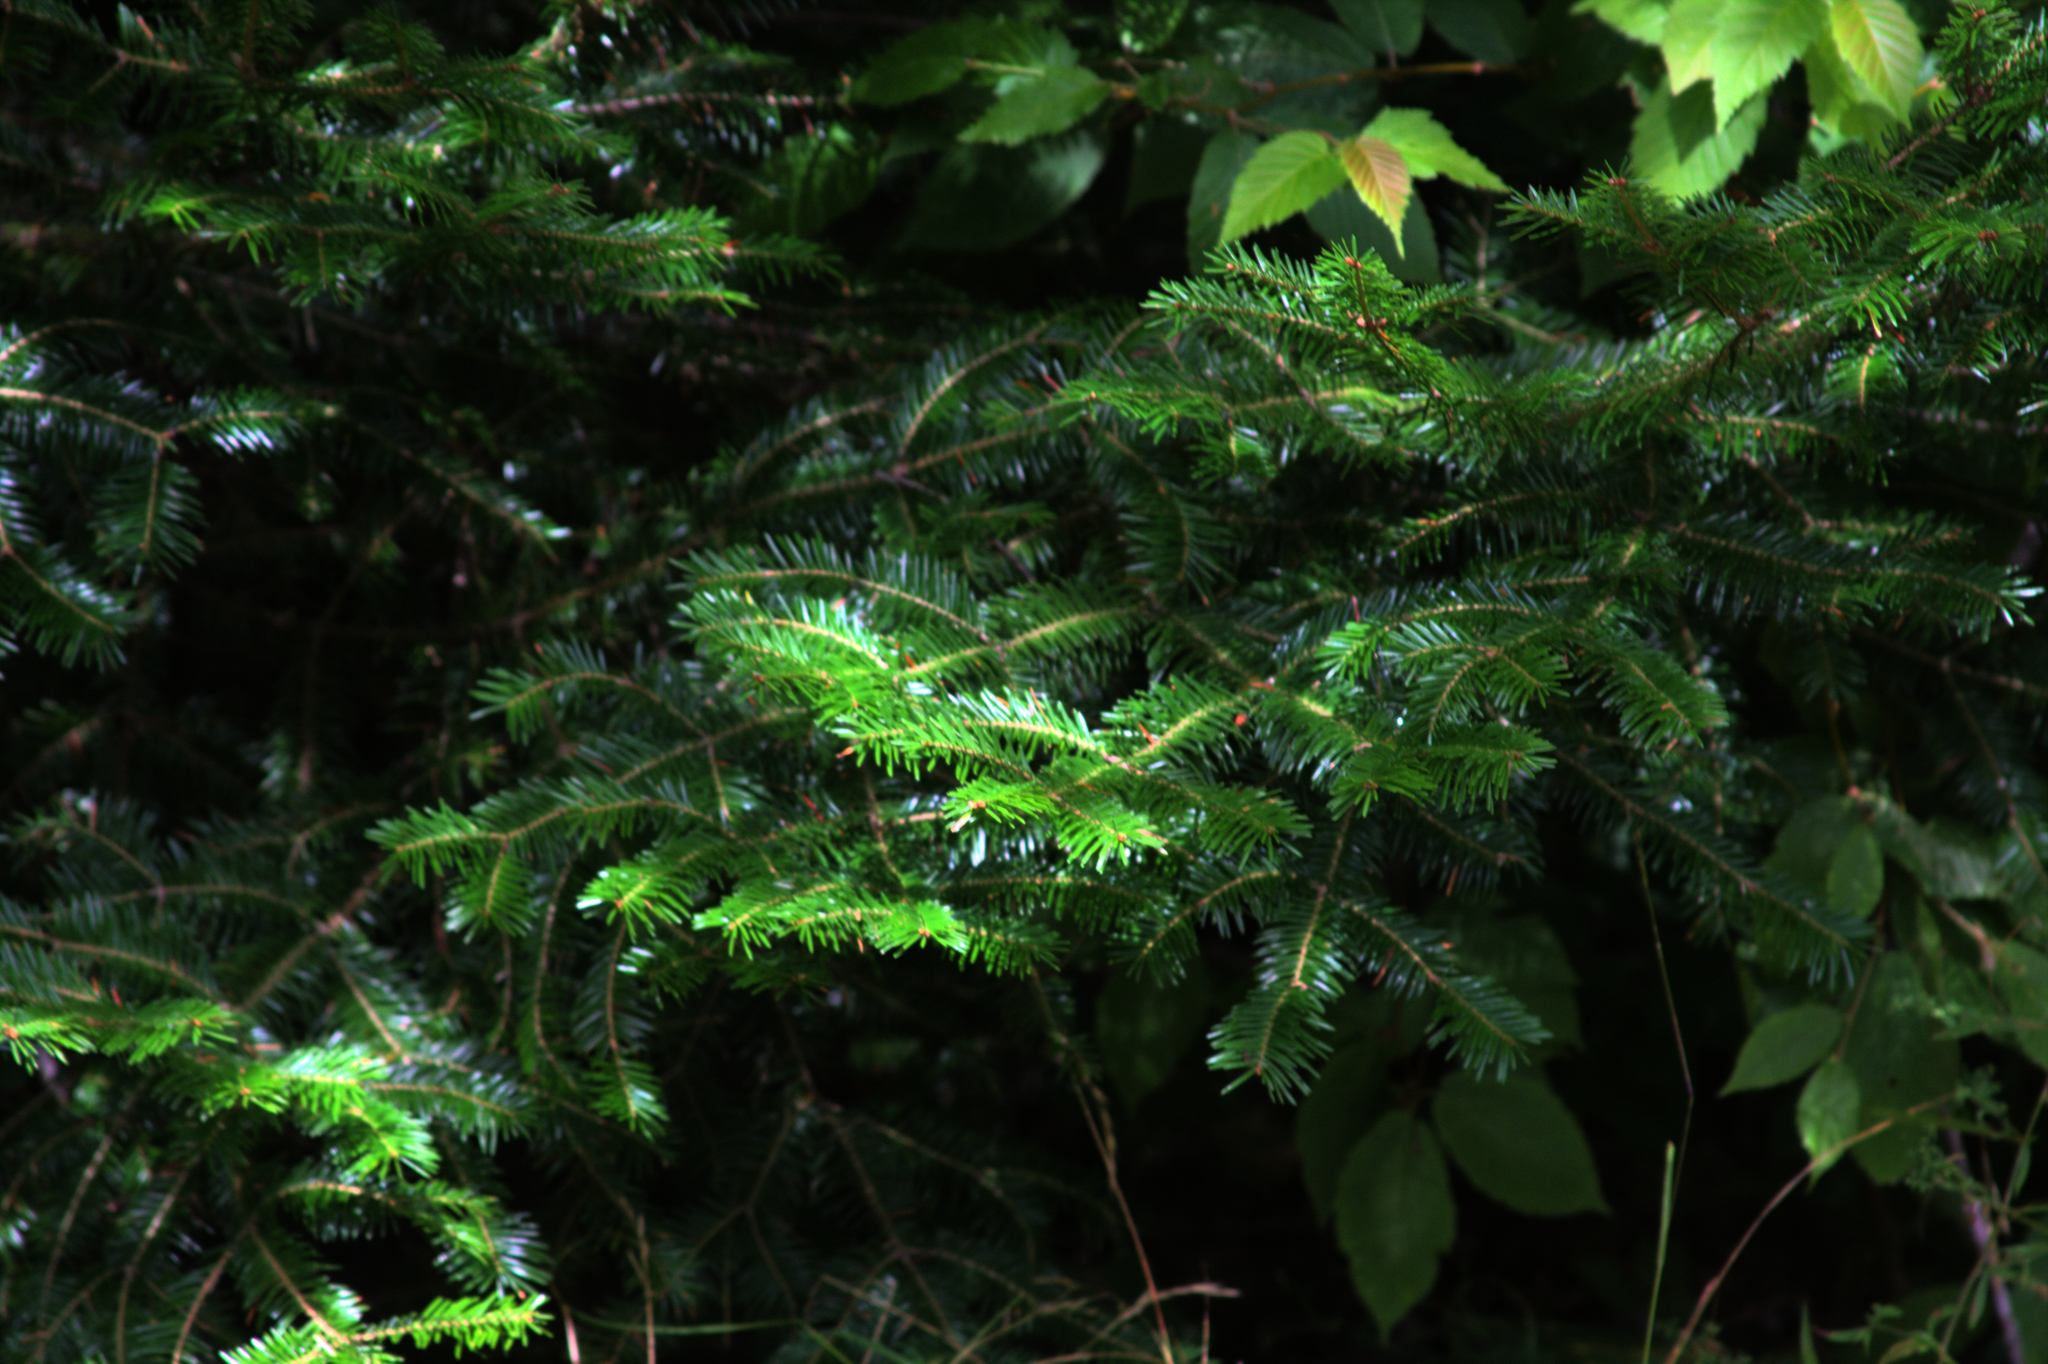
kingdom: Plantae
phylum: Tracheophyta
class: Pinopsida
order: Pinales
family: Pinaceae
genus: Abies
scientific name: Abies balsamea
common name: Balsam fir
